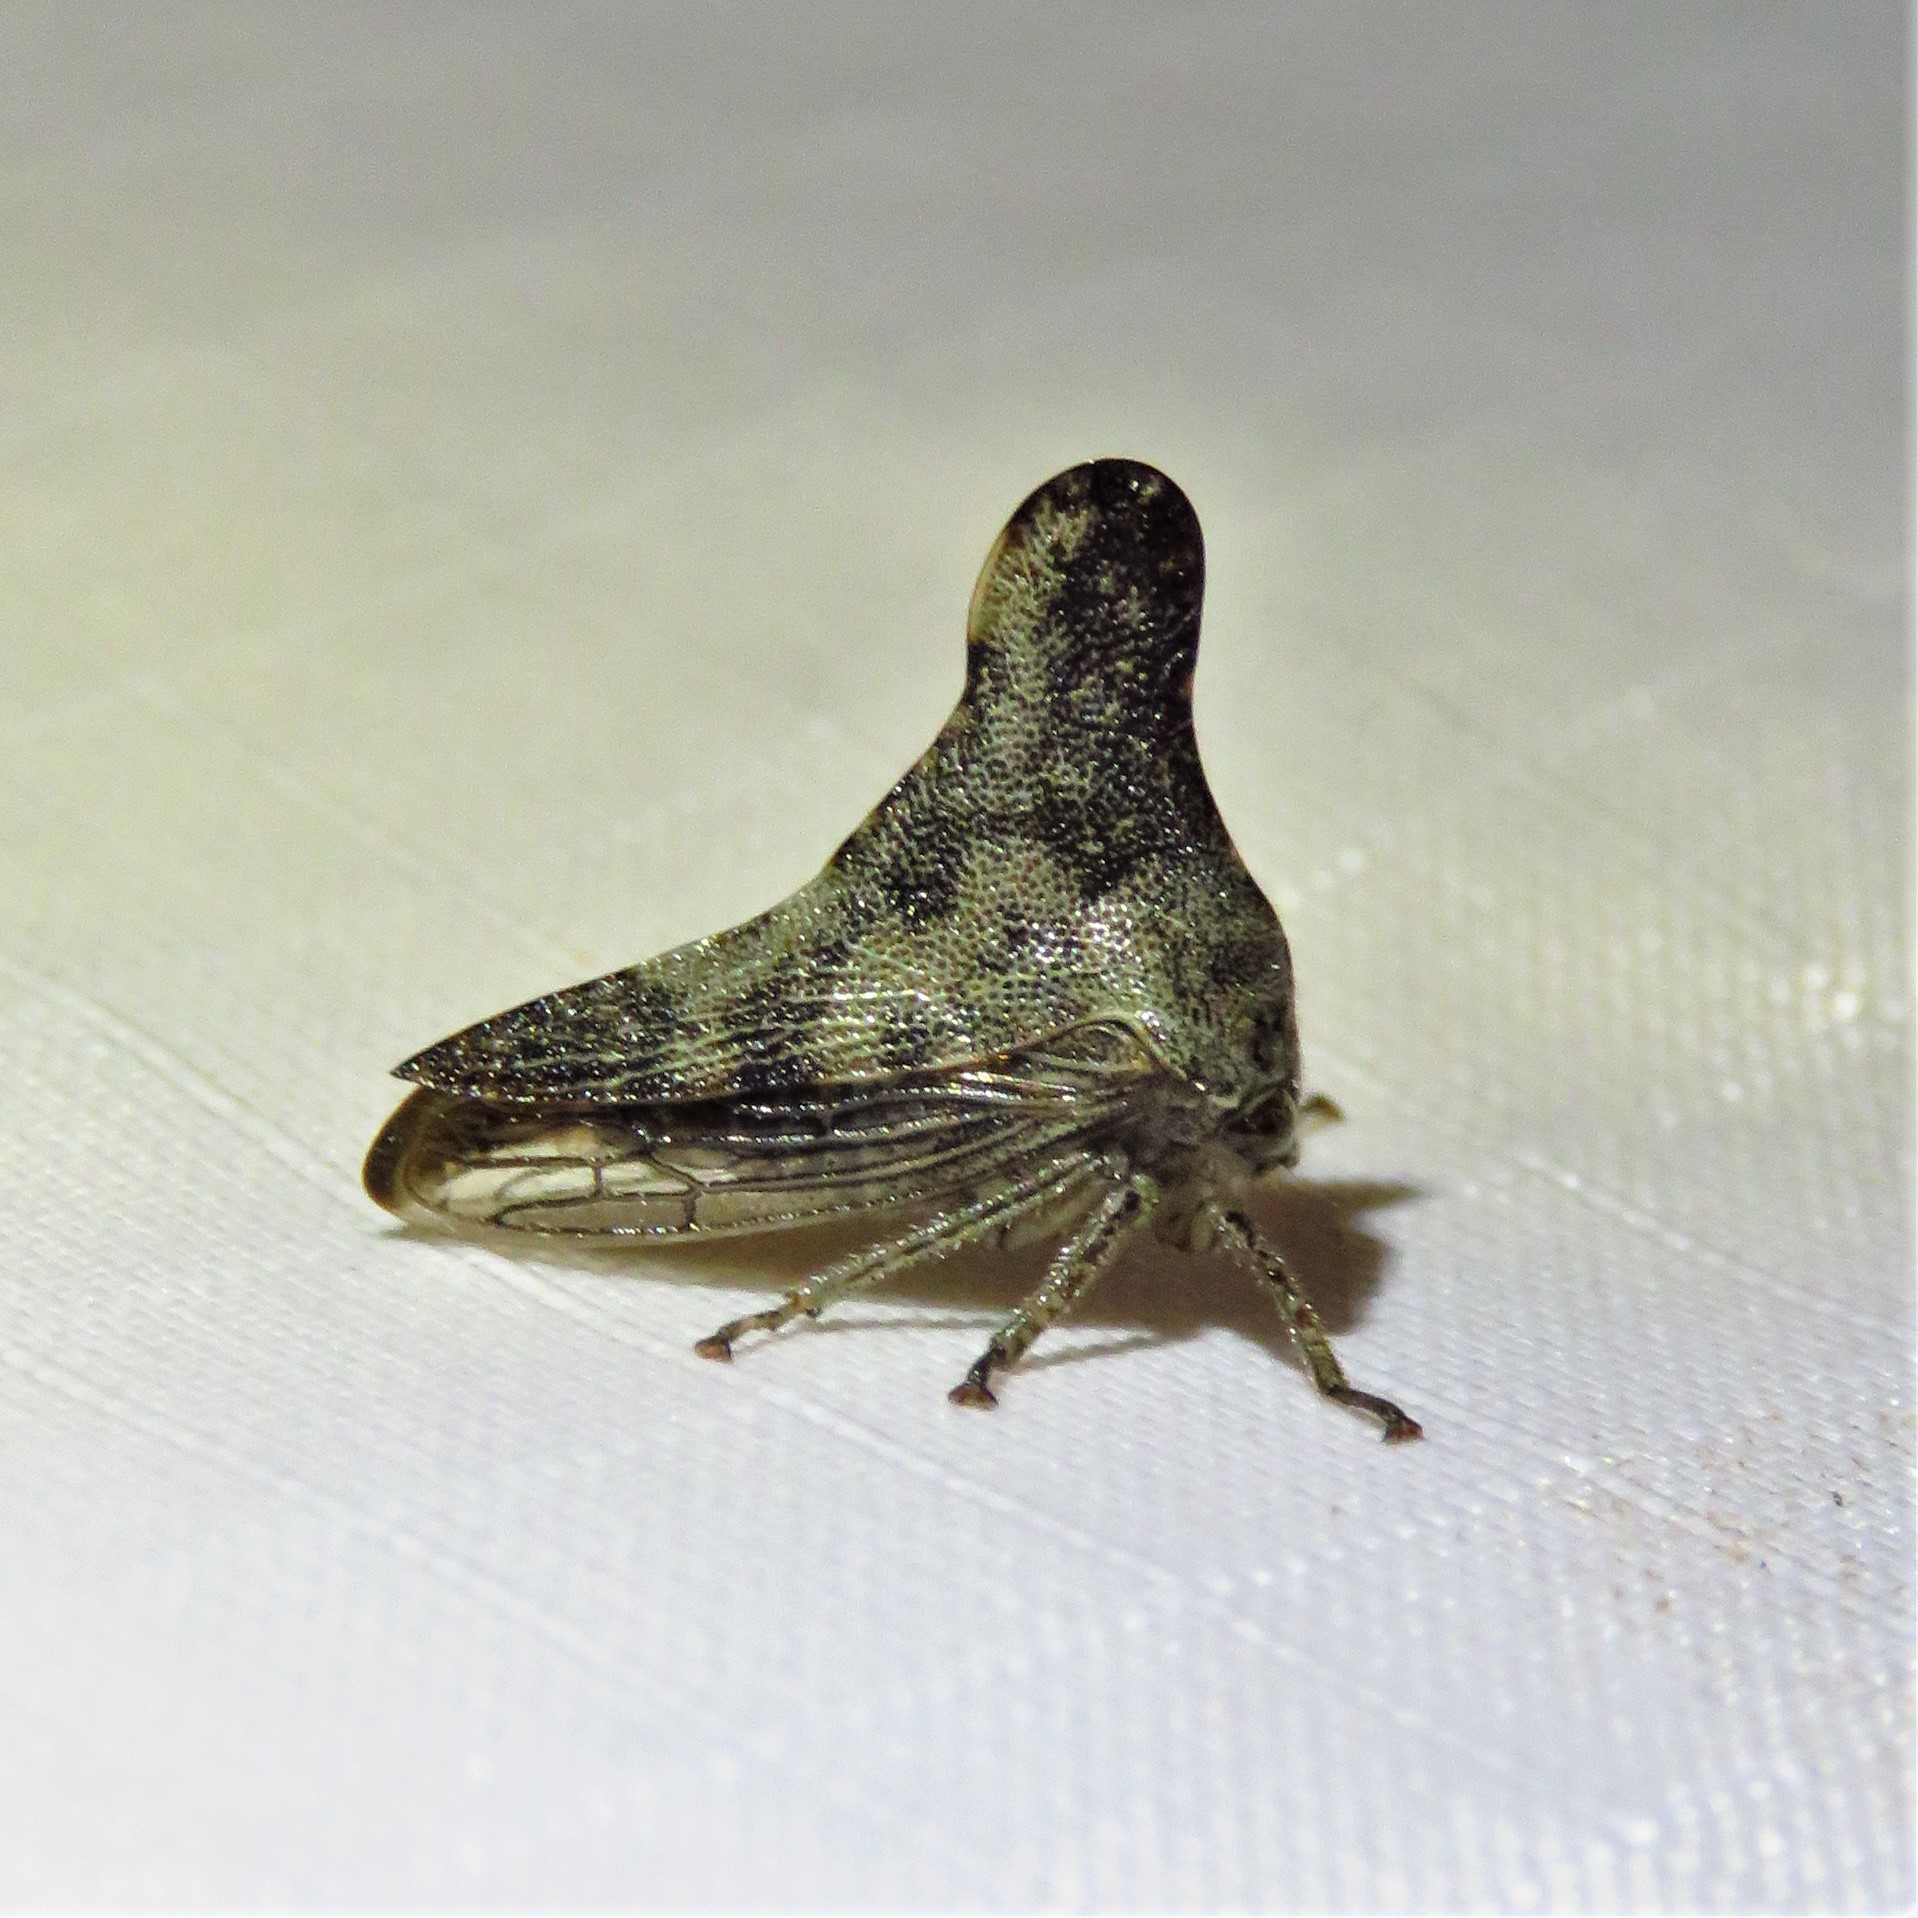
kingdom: Animalia
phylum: Arthropoda
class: Insecta
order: Hemiptera
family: Membracidae
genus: Glossonotus
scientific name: Glossonotus acuminata
